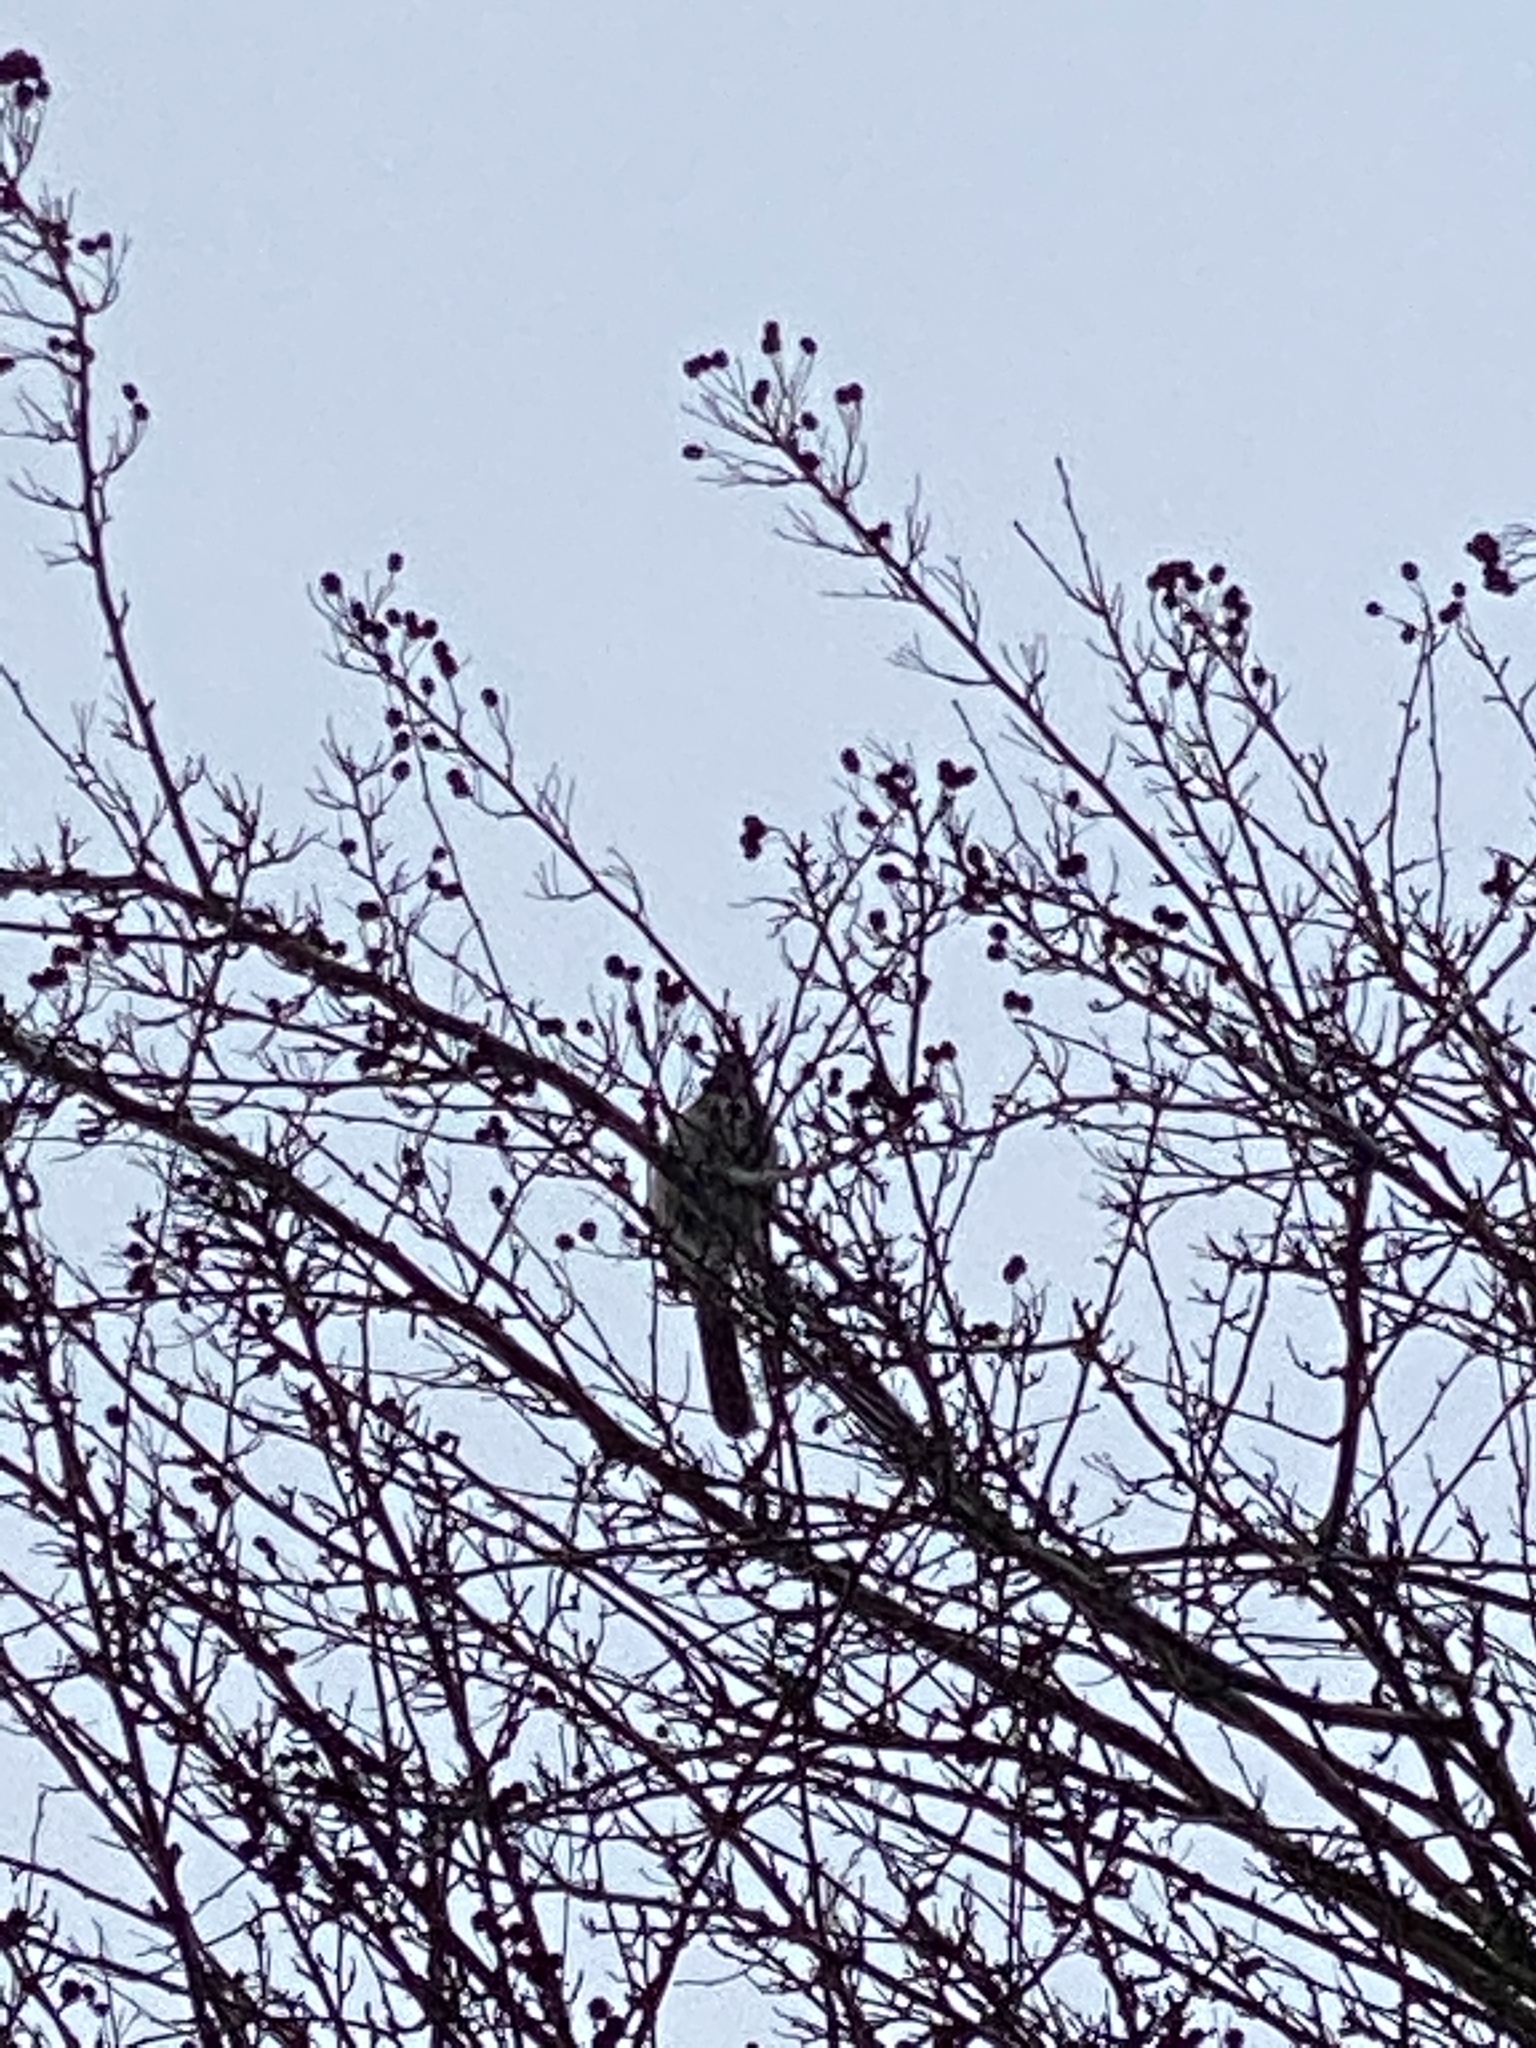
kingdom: Animalia
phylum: Chordata
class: Aves
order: Passeriformes
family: Corvidae
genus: Aphelocoma
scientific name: Aphelocoma californica
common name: California scrub-jay
